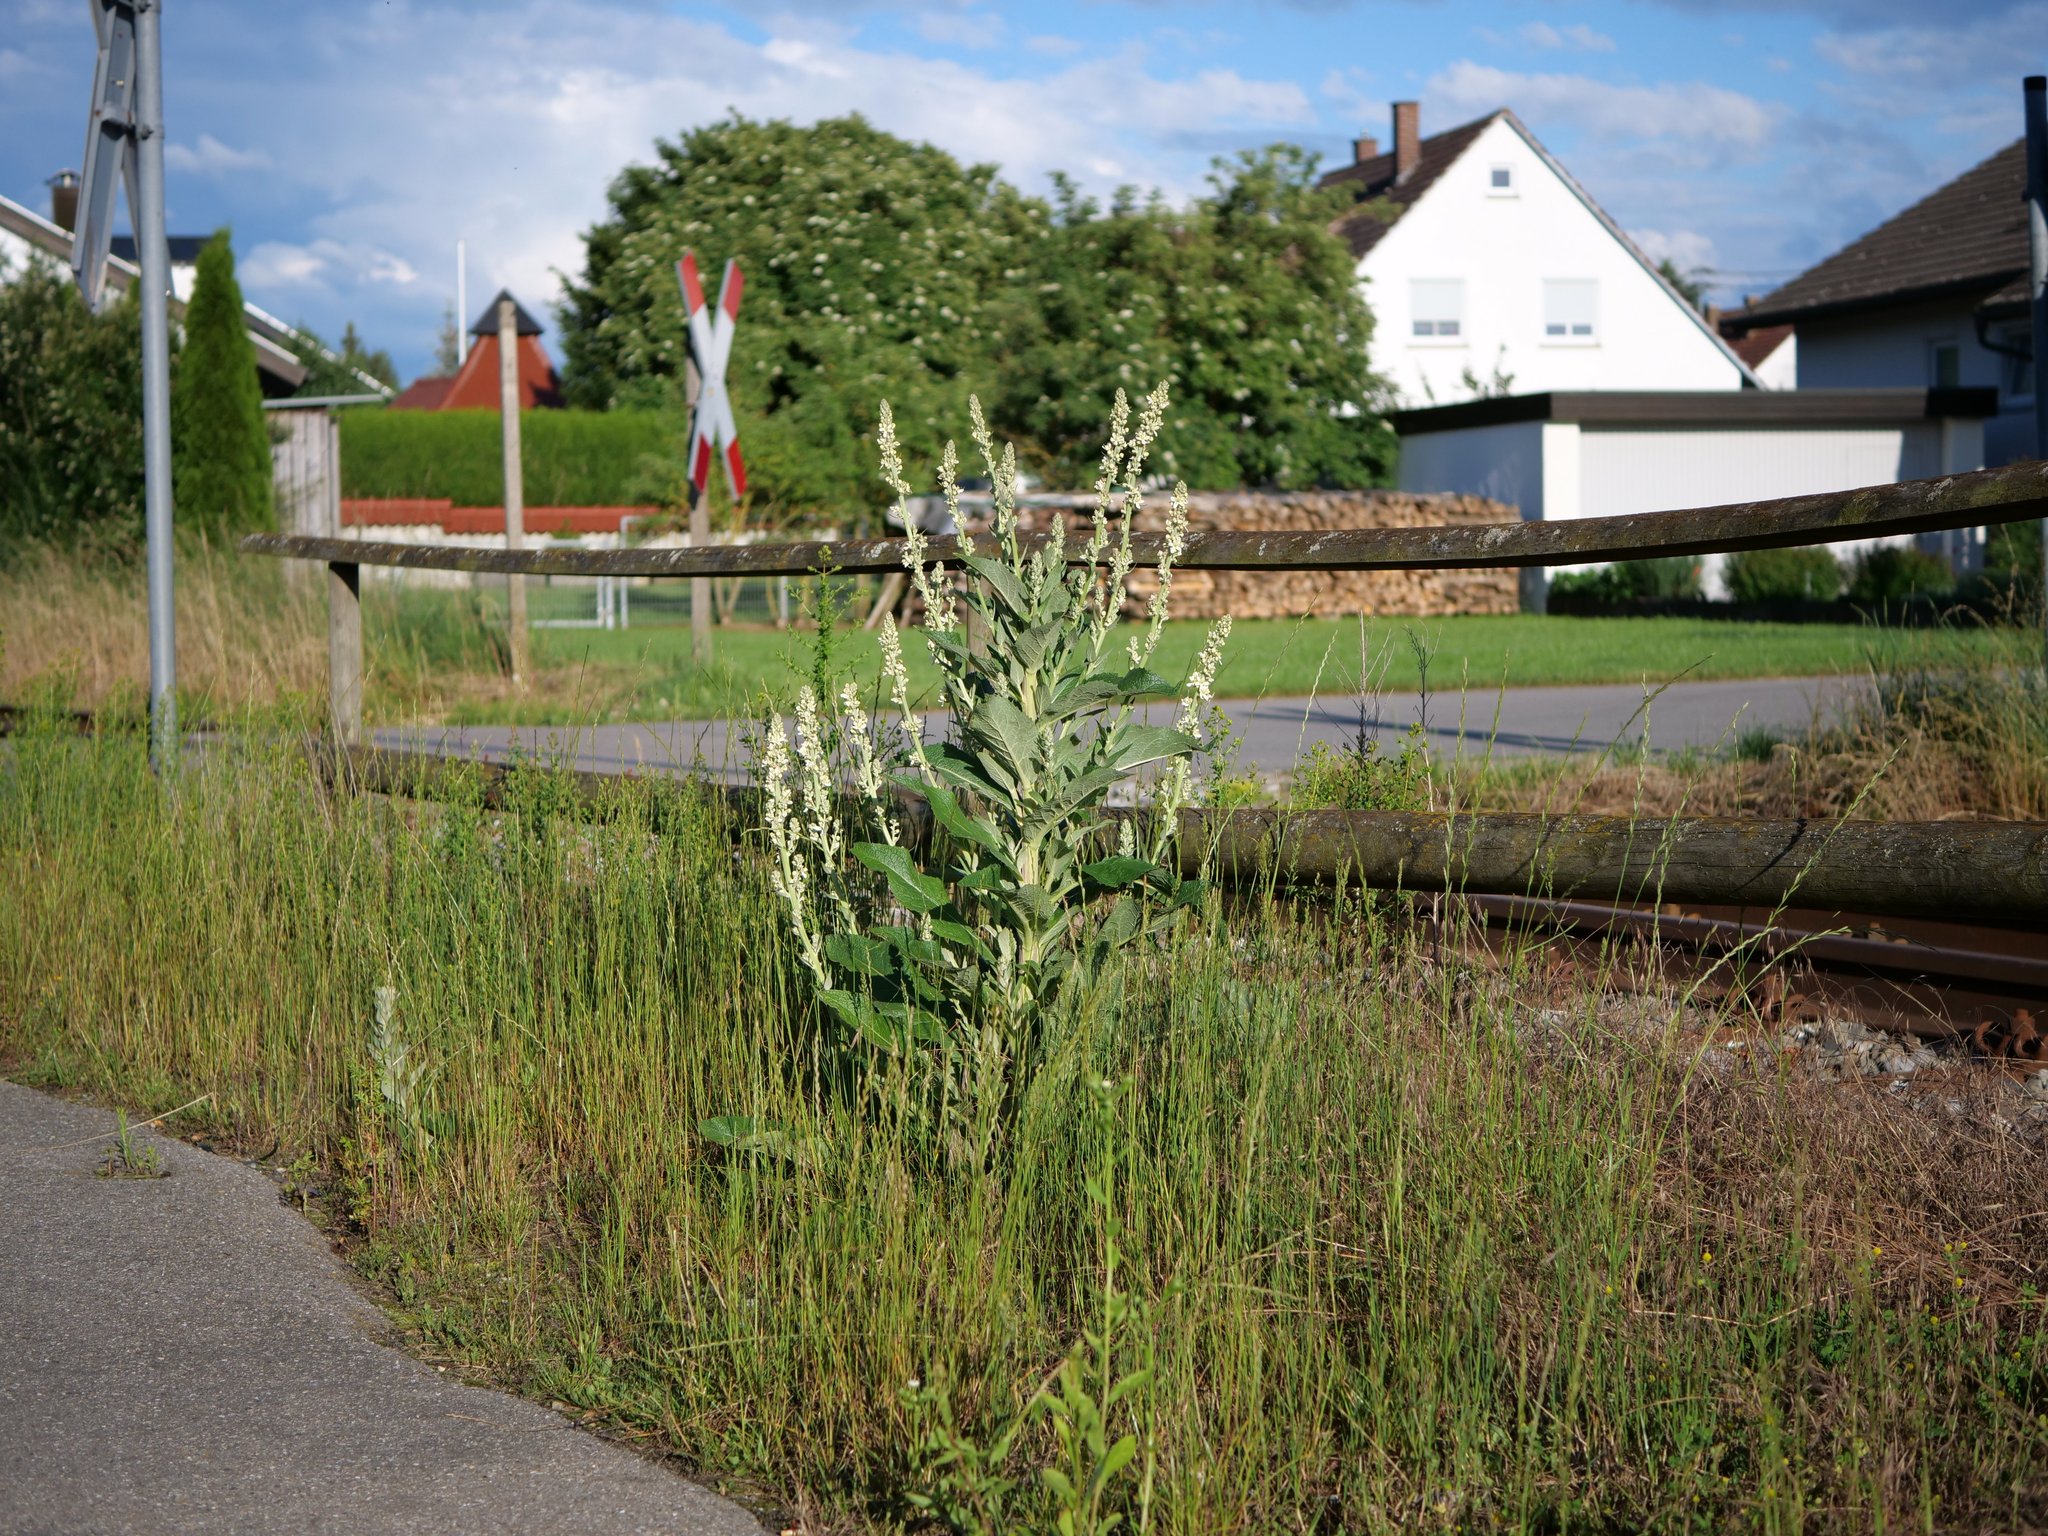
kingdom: Plantae
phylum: Tracheophyta
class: Magnoliopsida
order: Lamiales
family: Scrophulariaceae
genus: Verbascum
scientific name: Verbascum lychnitis
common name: White mullein
